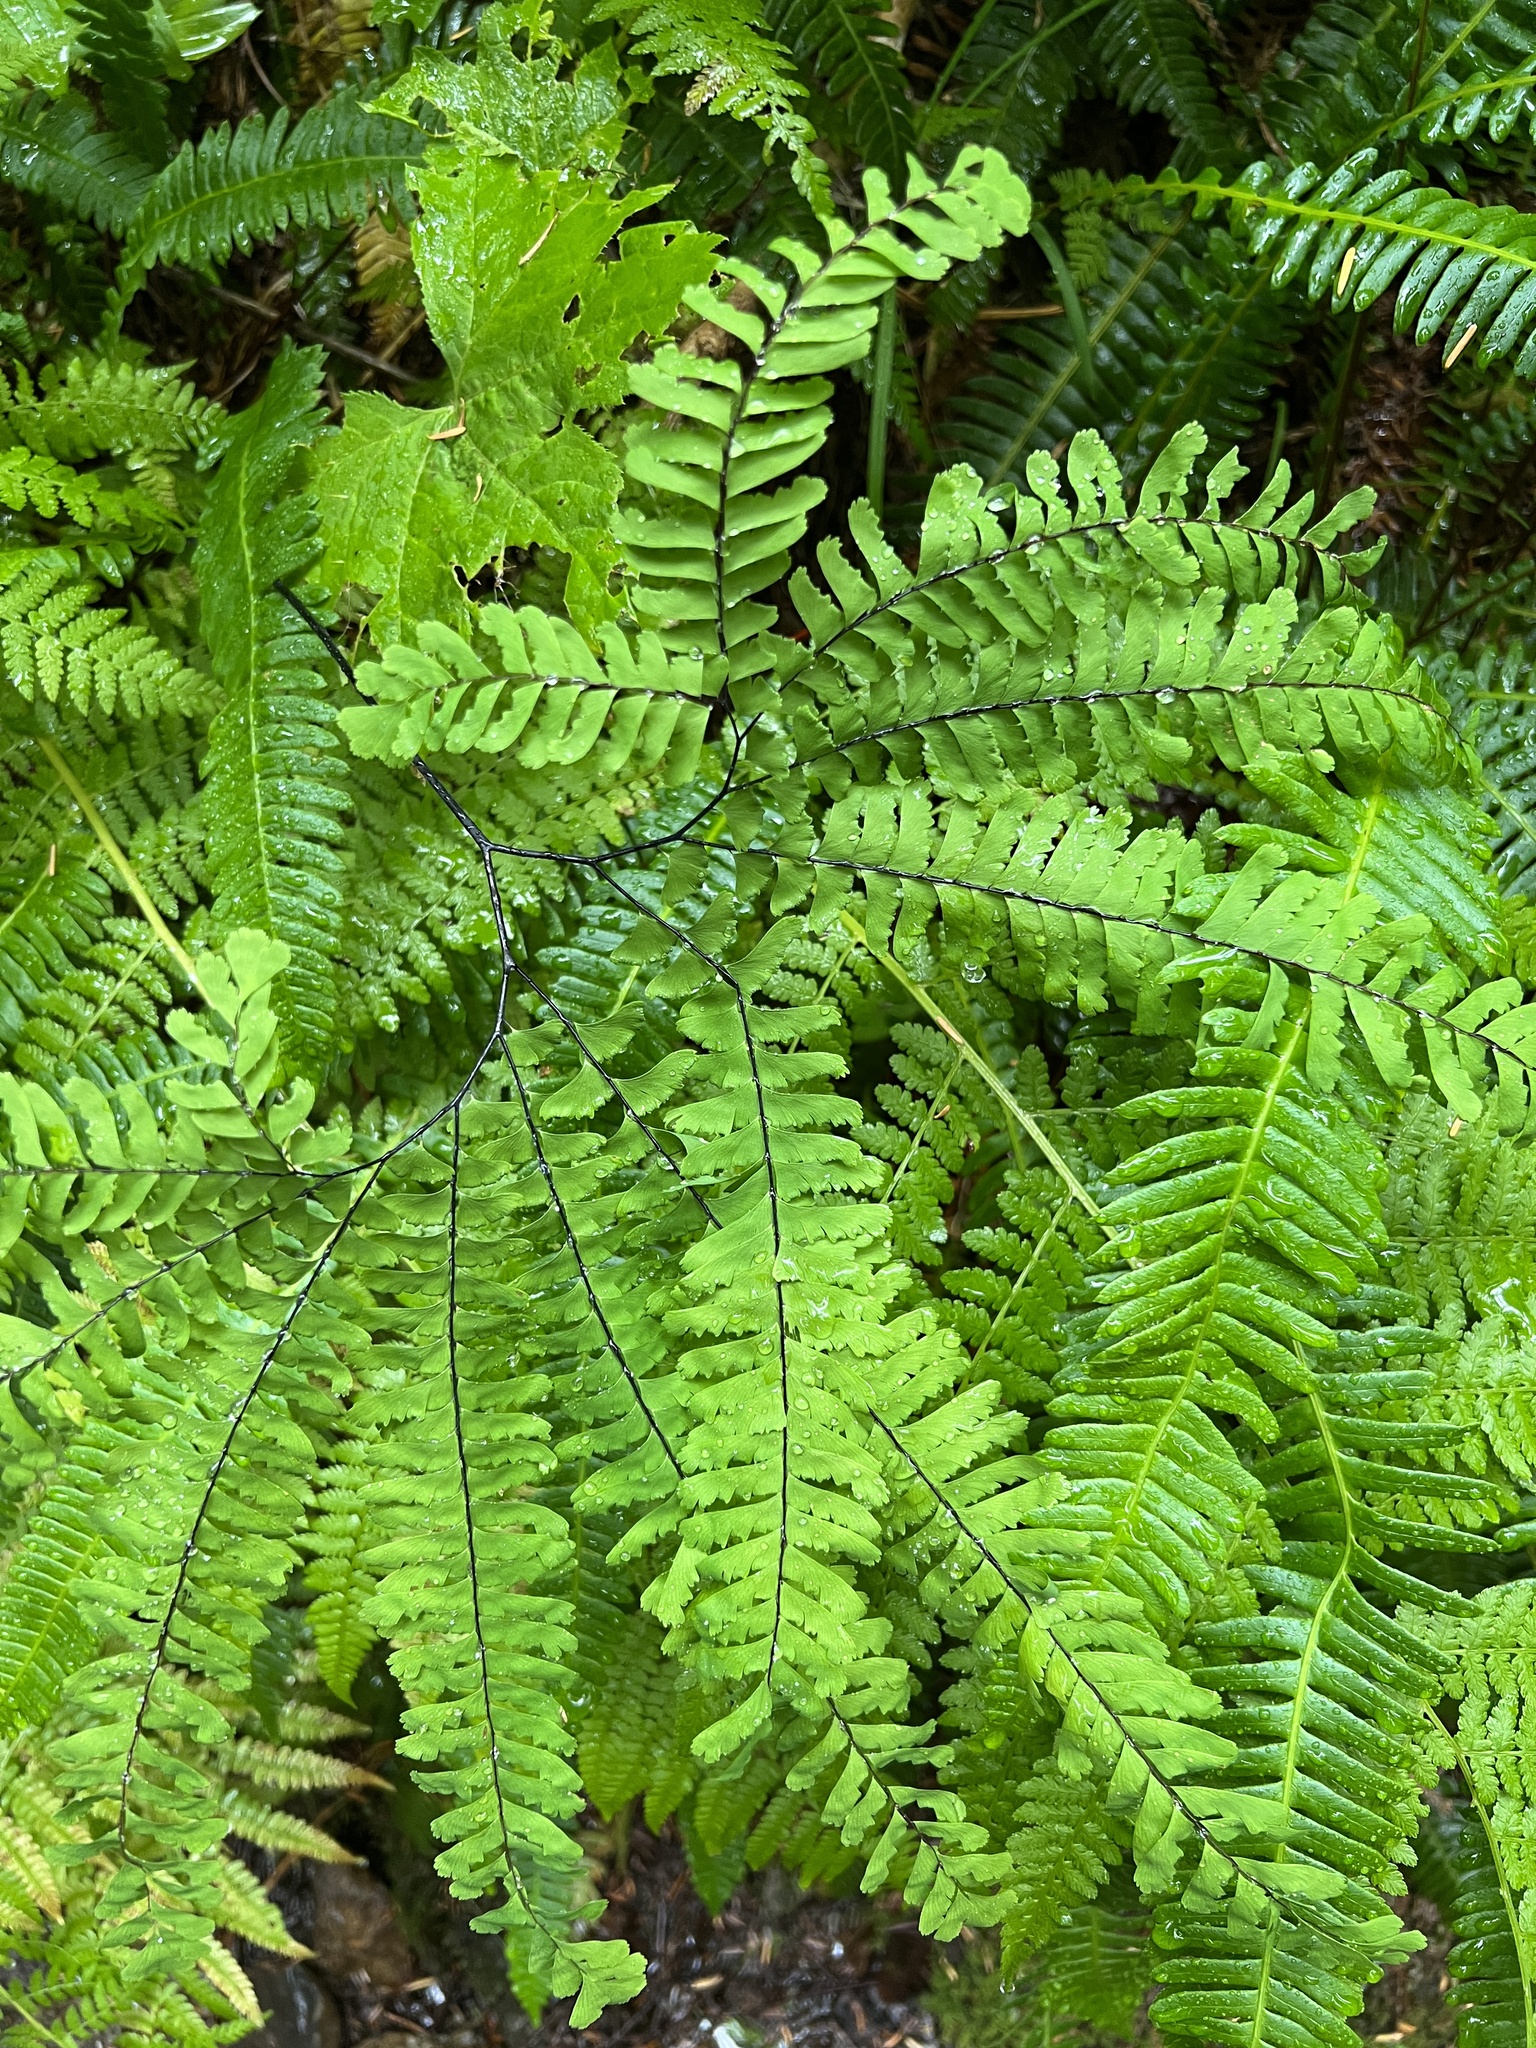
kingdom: Plantae
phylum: Tracheophyta
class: Polypodiopsida
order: Polypodiales
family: Pteridaceae
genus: Adiantum
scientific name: Adiantum aleuticum
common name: Aleutian maidenhair fern
